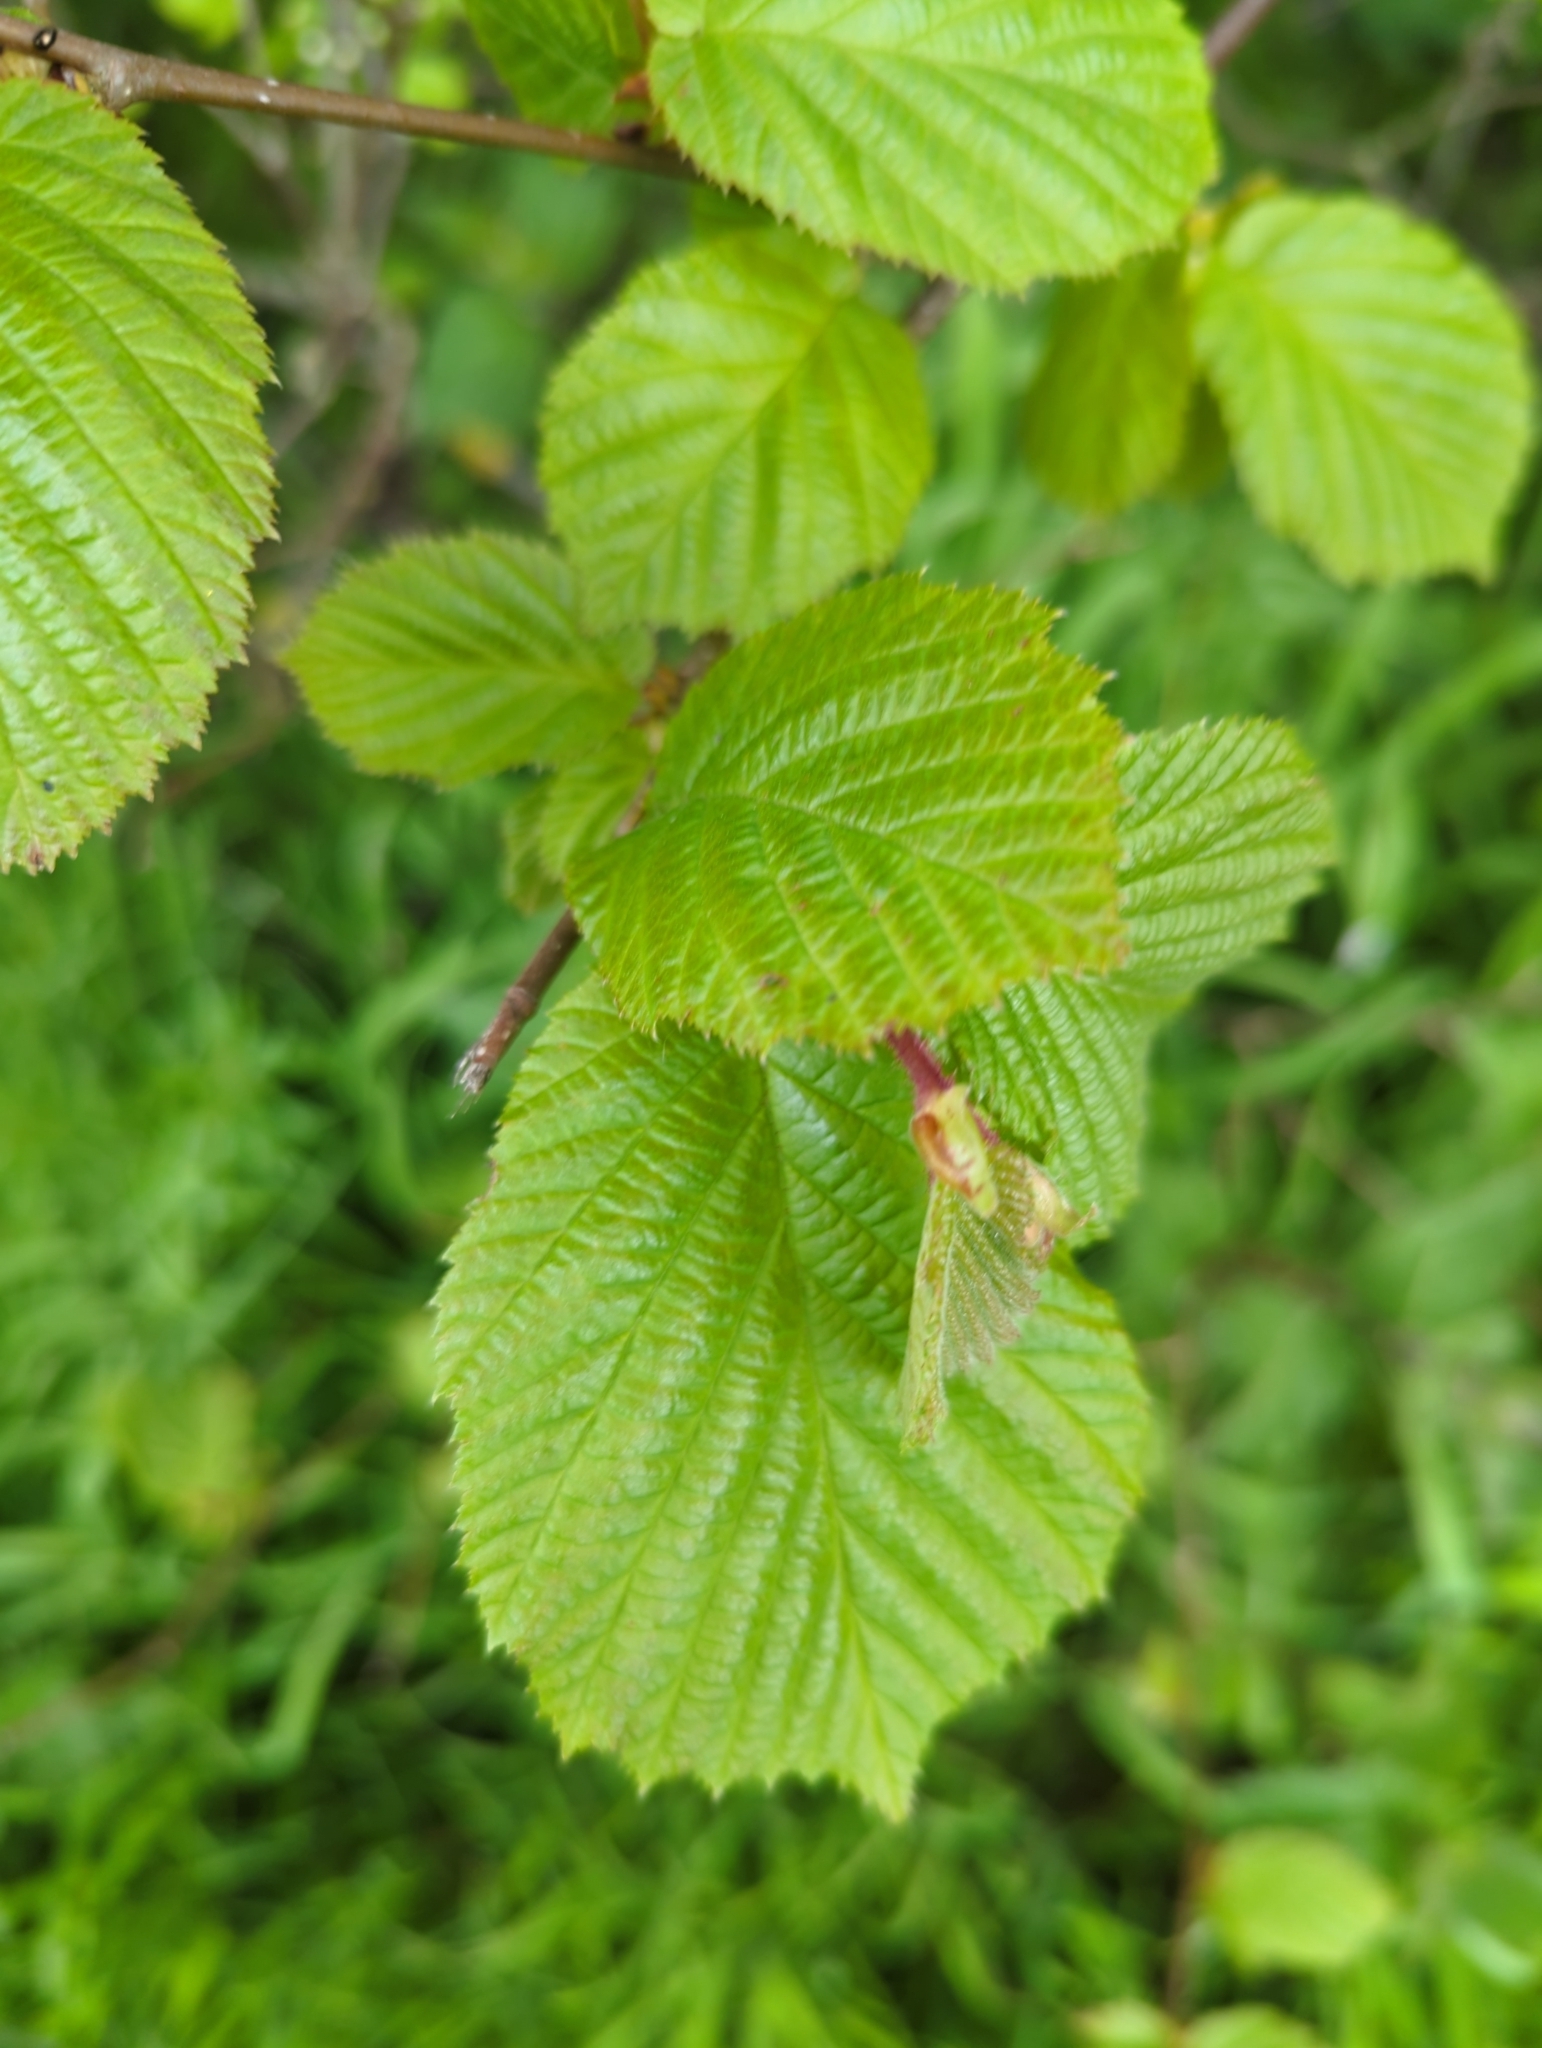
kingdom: Plantae
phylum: Tracheophyta
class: Magnoliopsida
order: Fagales
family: Betulaceae
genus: Corylus
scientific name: Corylus avellana
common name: European hazel
